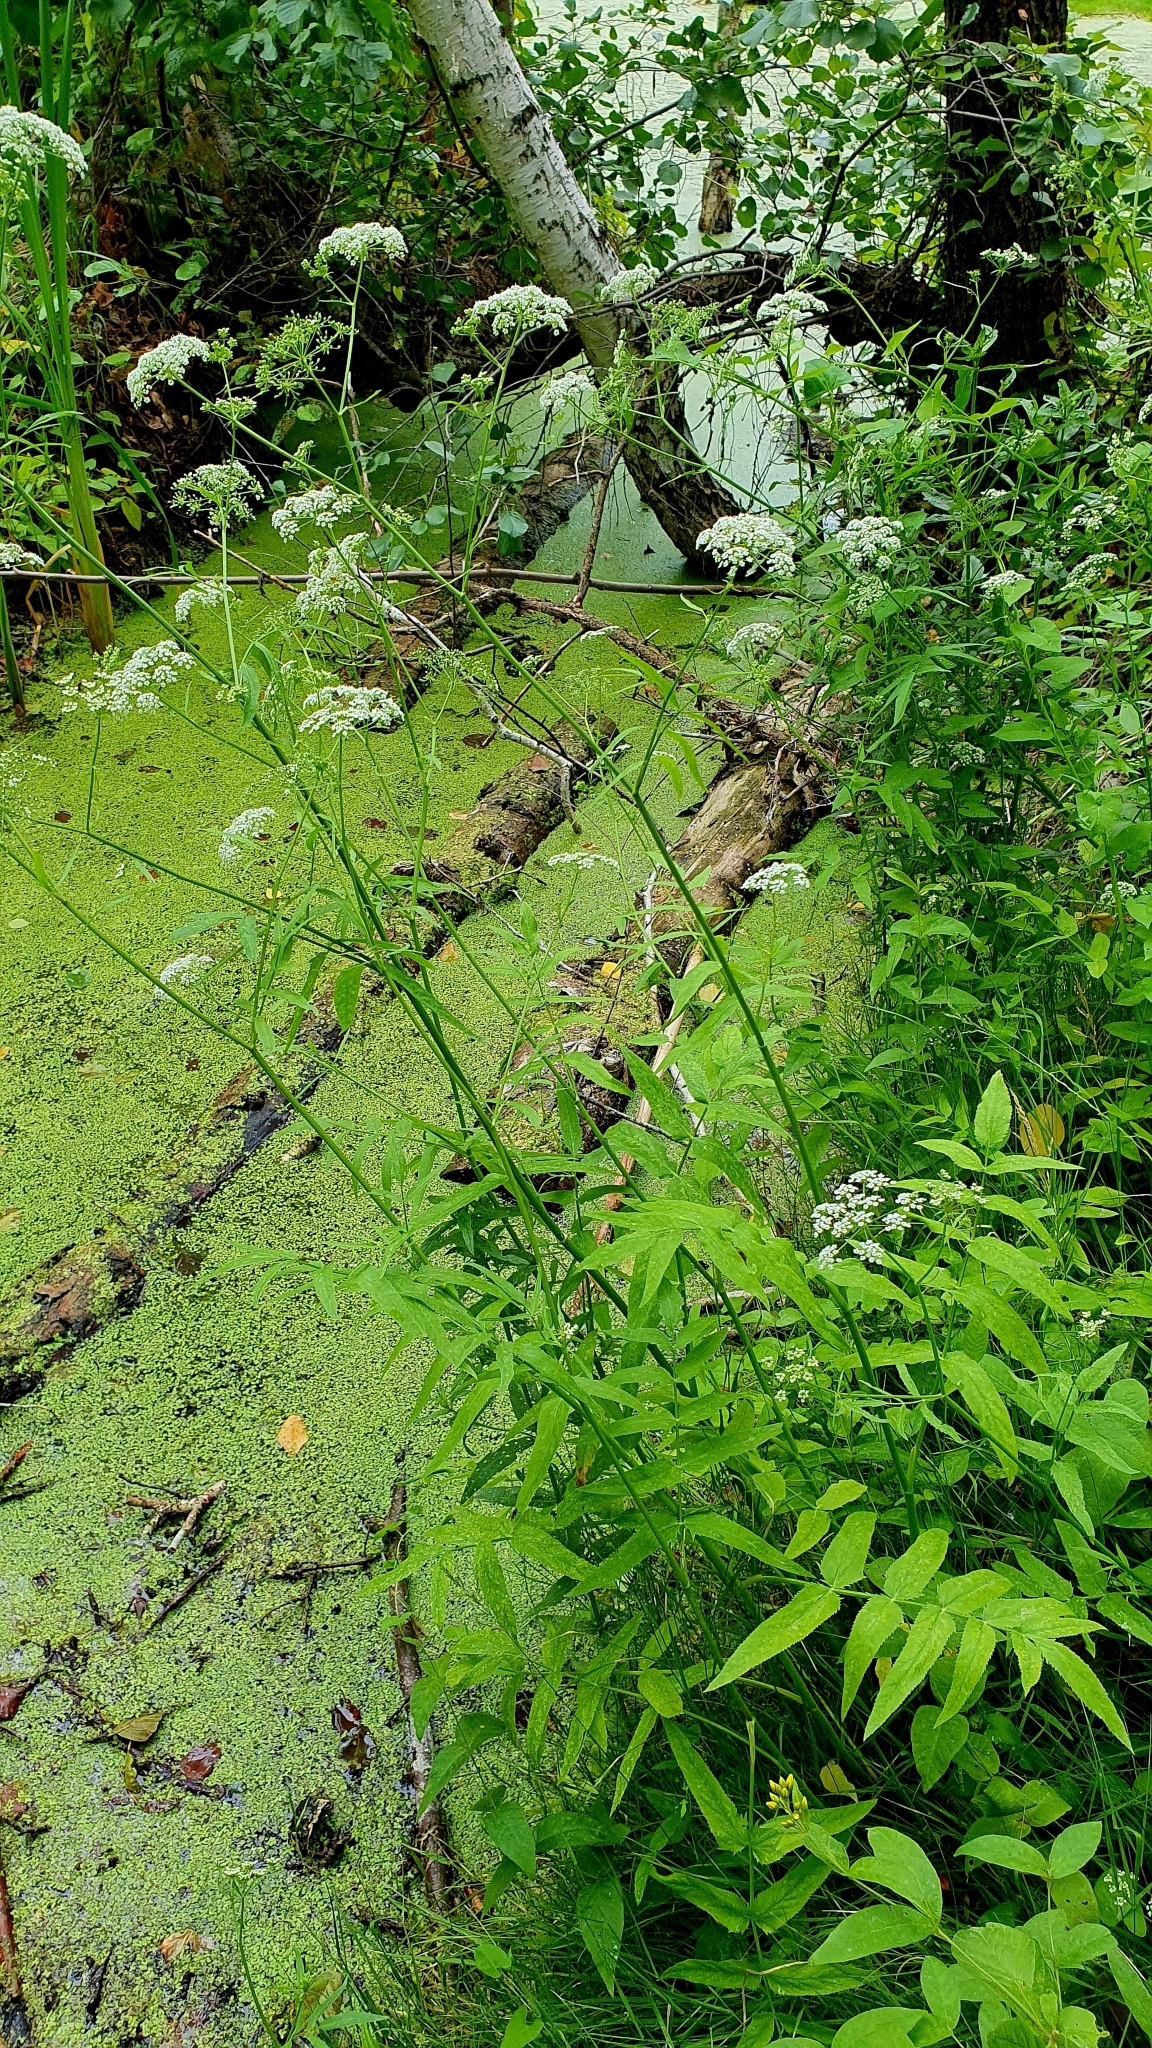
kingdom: Plantae
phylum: Tracheophyta
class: Magnoliopsida
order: Apiales
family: Apiaceae
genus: Sium
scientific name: Sium latifolium
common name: Greater water-parsnip
